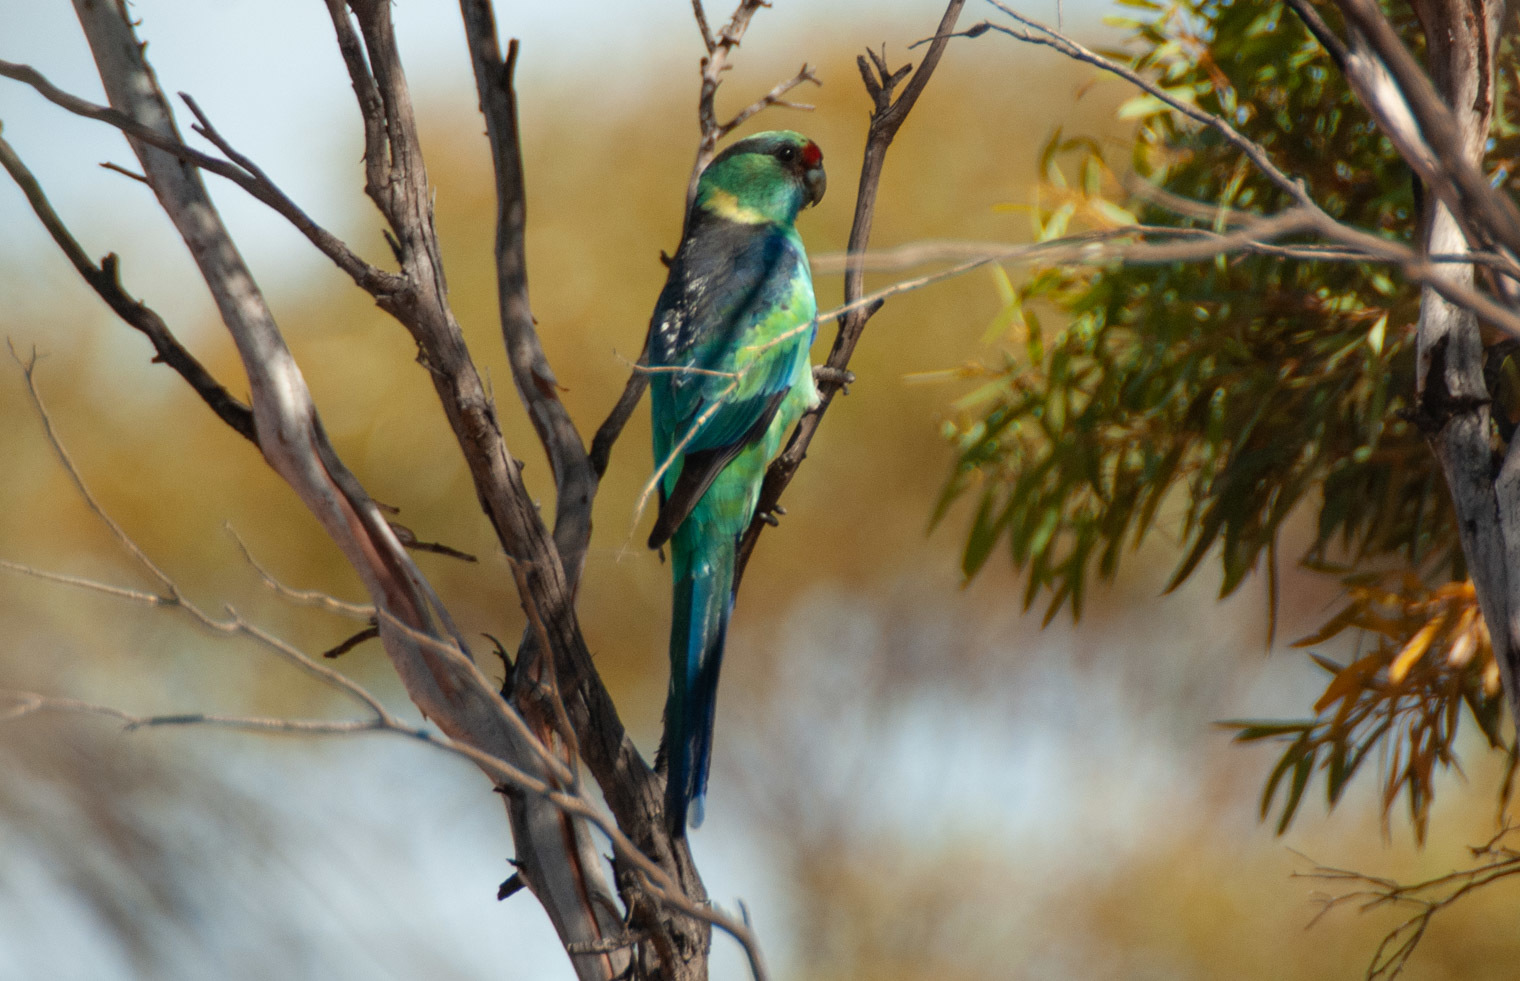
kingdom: Animalia
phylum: Chordata
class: Aves
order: Psittaciformes
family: Psittacidae
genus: Barnardius
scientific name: Barnardius zonarius
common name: Australian ringneck
